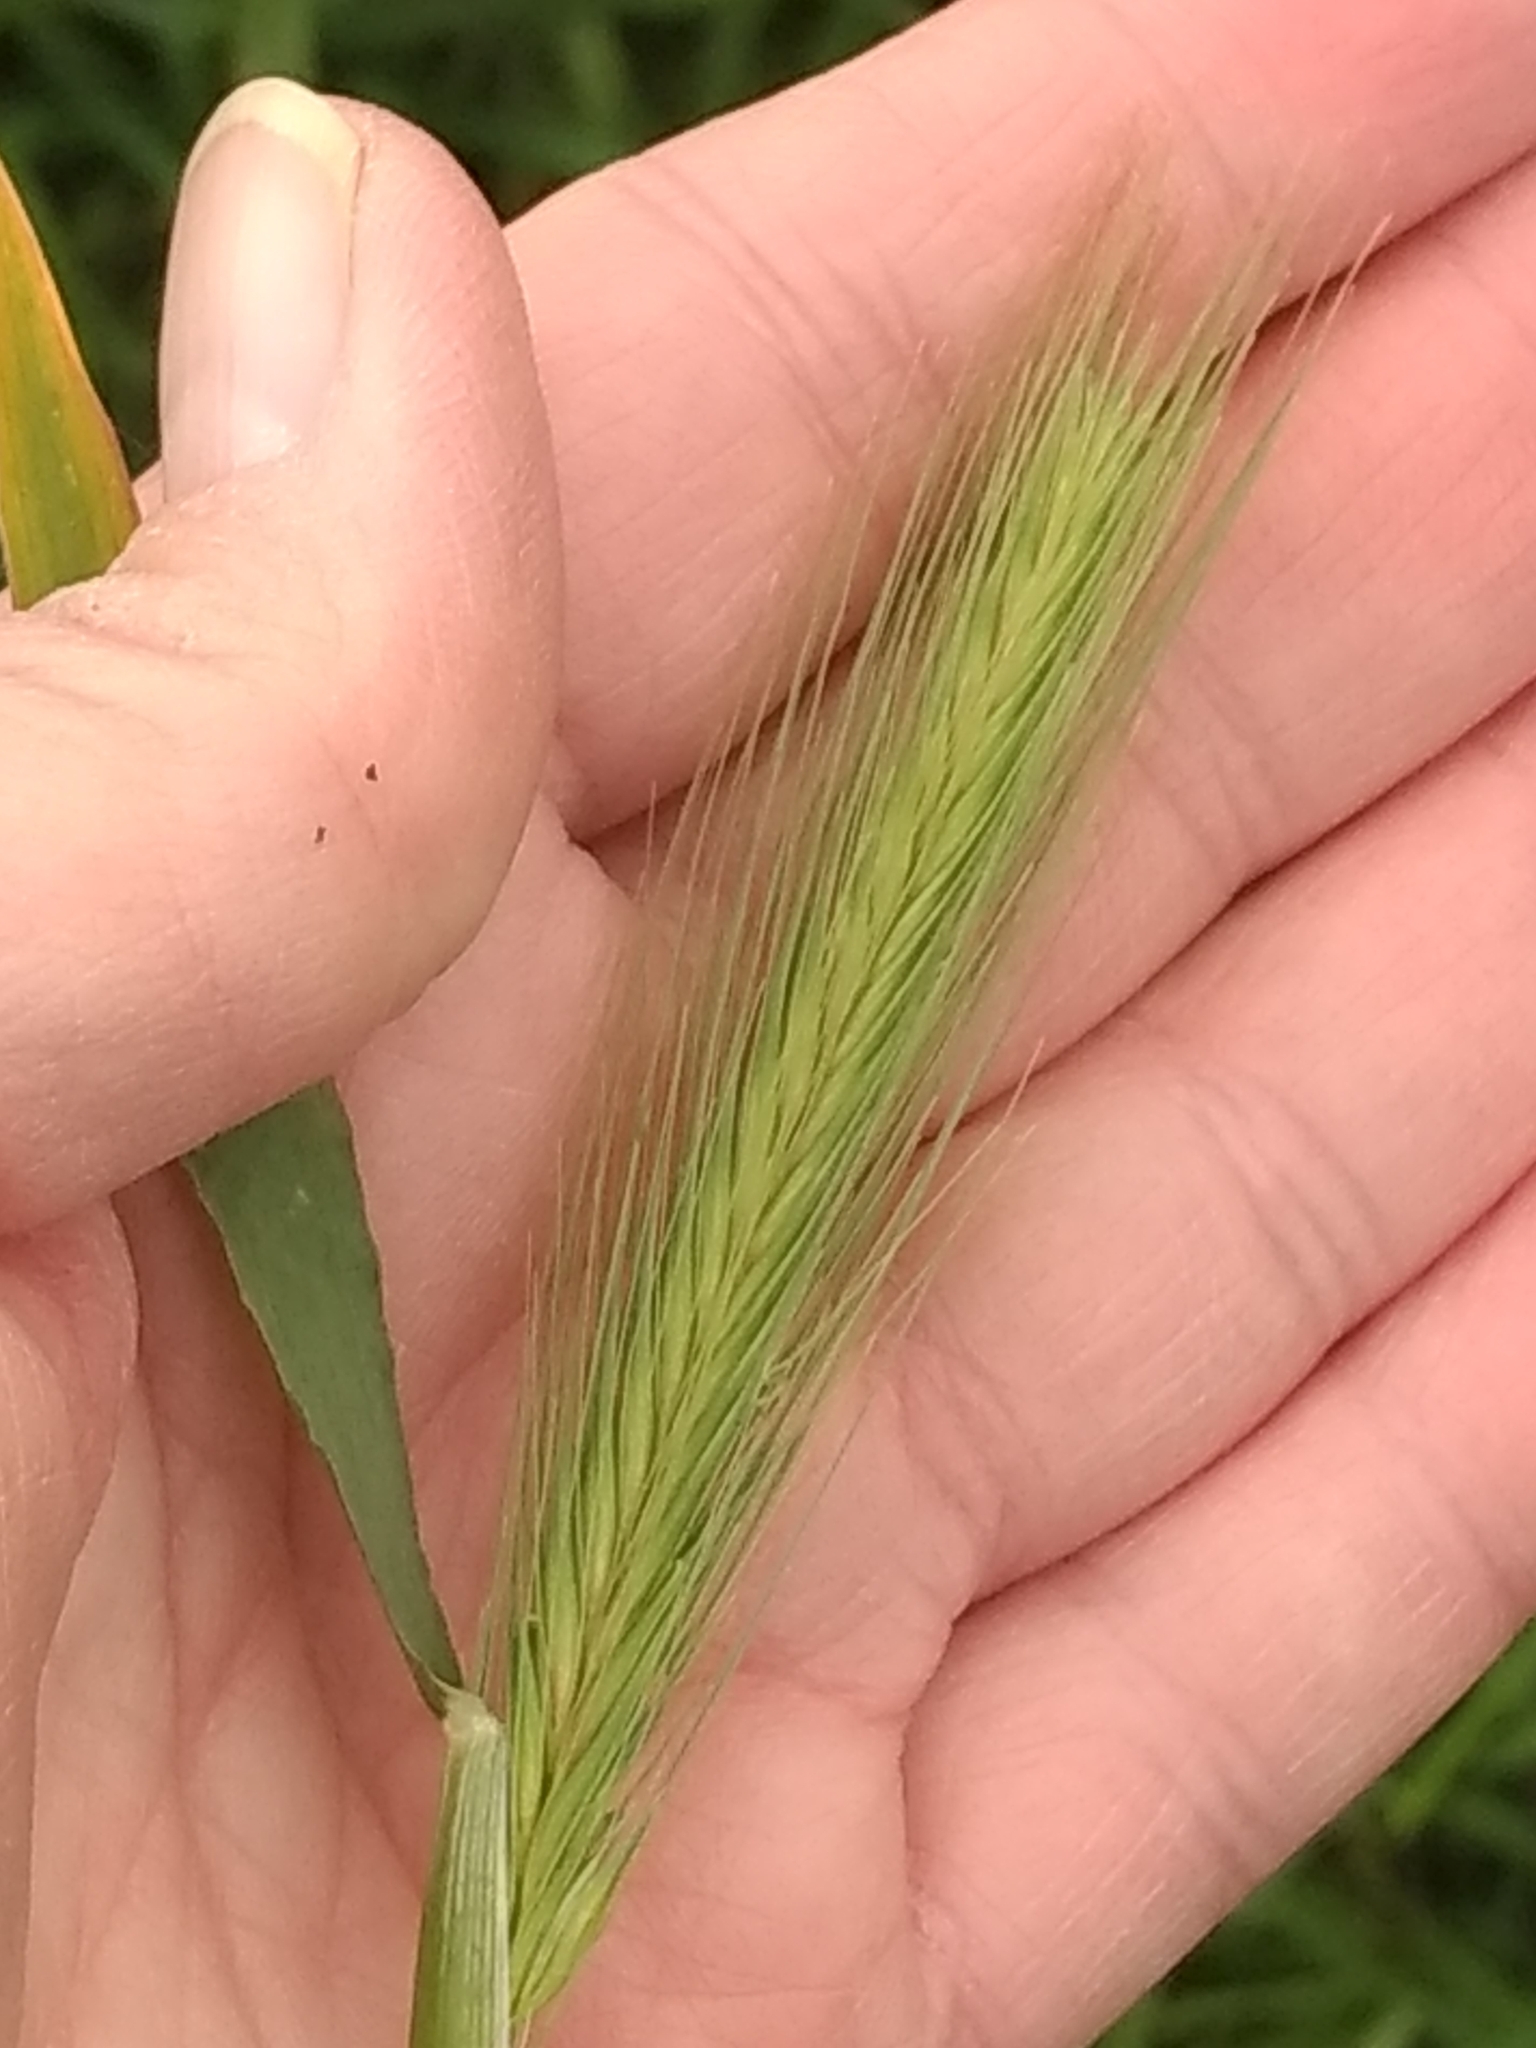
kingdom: Plantae
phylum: Tracheophyta
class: Liliopsida
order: Poales
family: Poaceae
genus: Hordeum
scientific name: Hordeum murinum
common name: Wall barley
